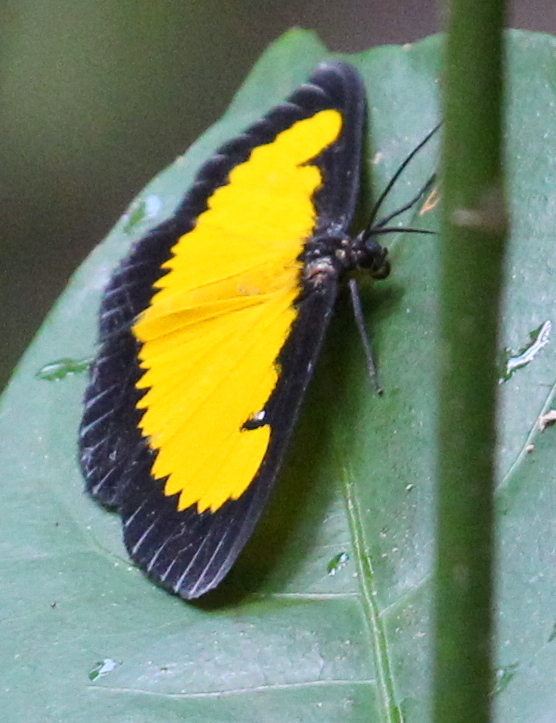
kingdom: Animalia
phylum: Arthropoda
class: Insecta
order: Lepidoptera
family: Geometridae
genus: Xanthyris
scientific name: Xanthyris flaveolata
